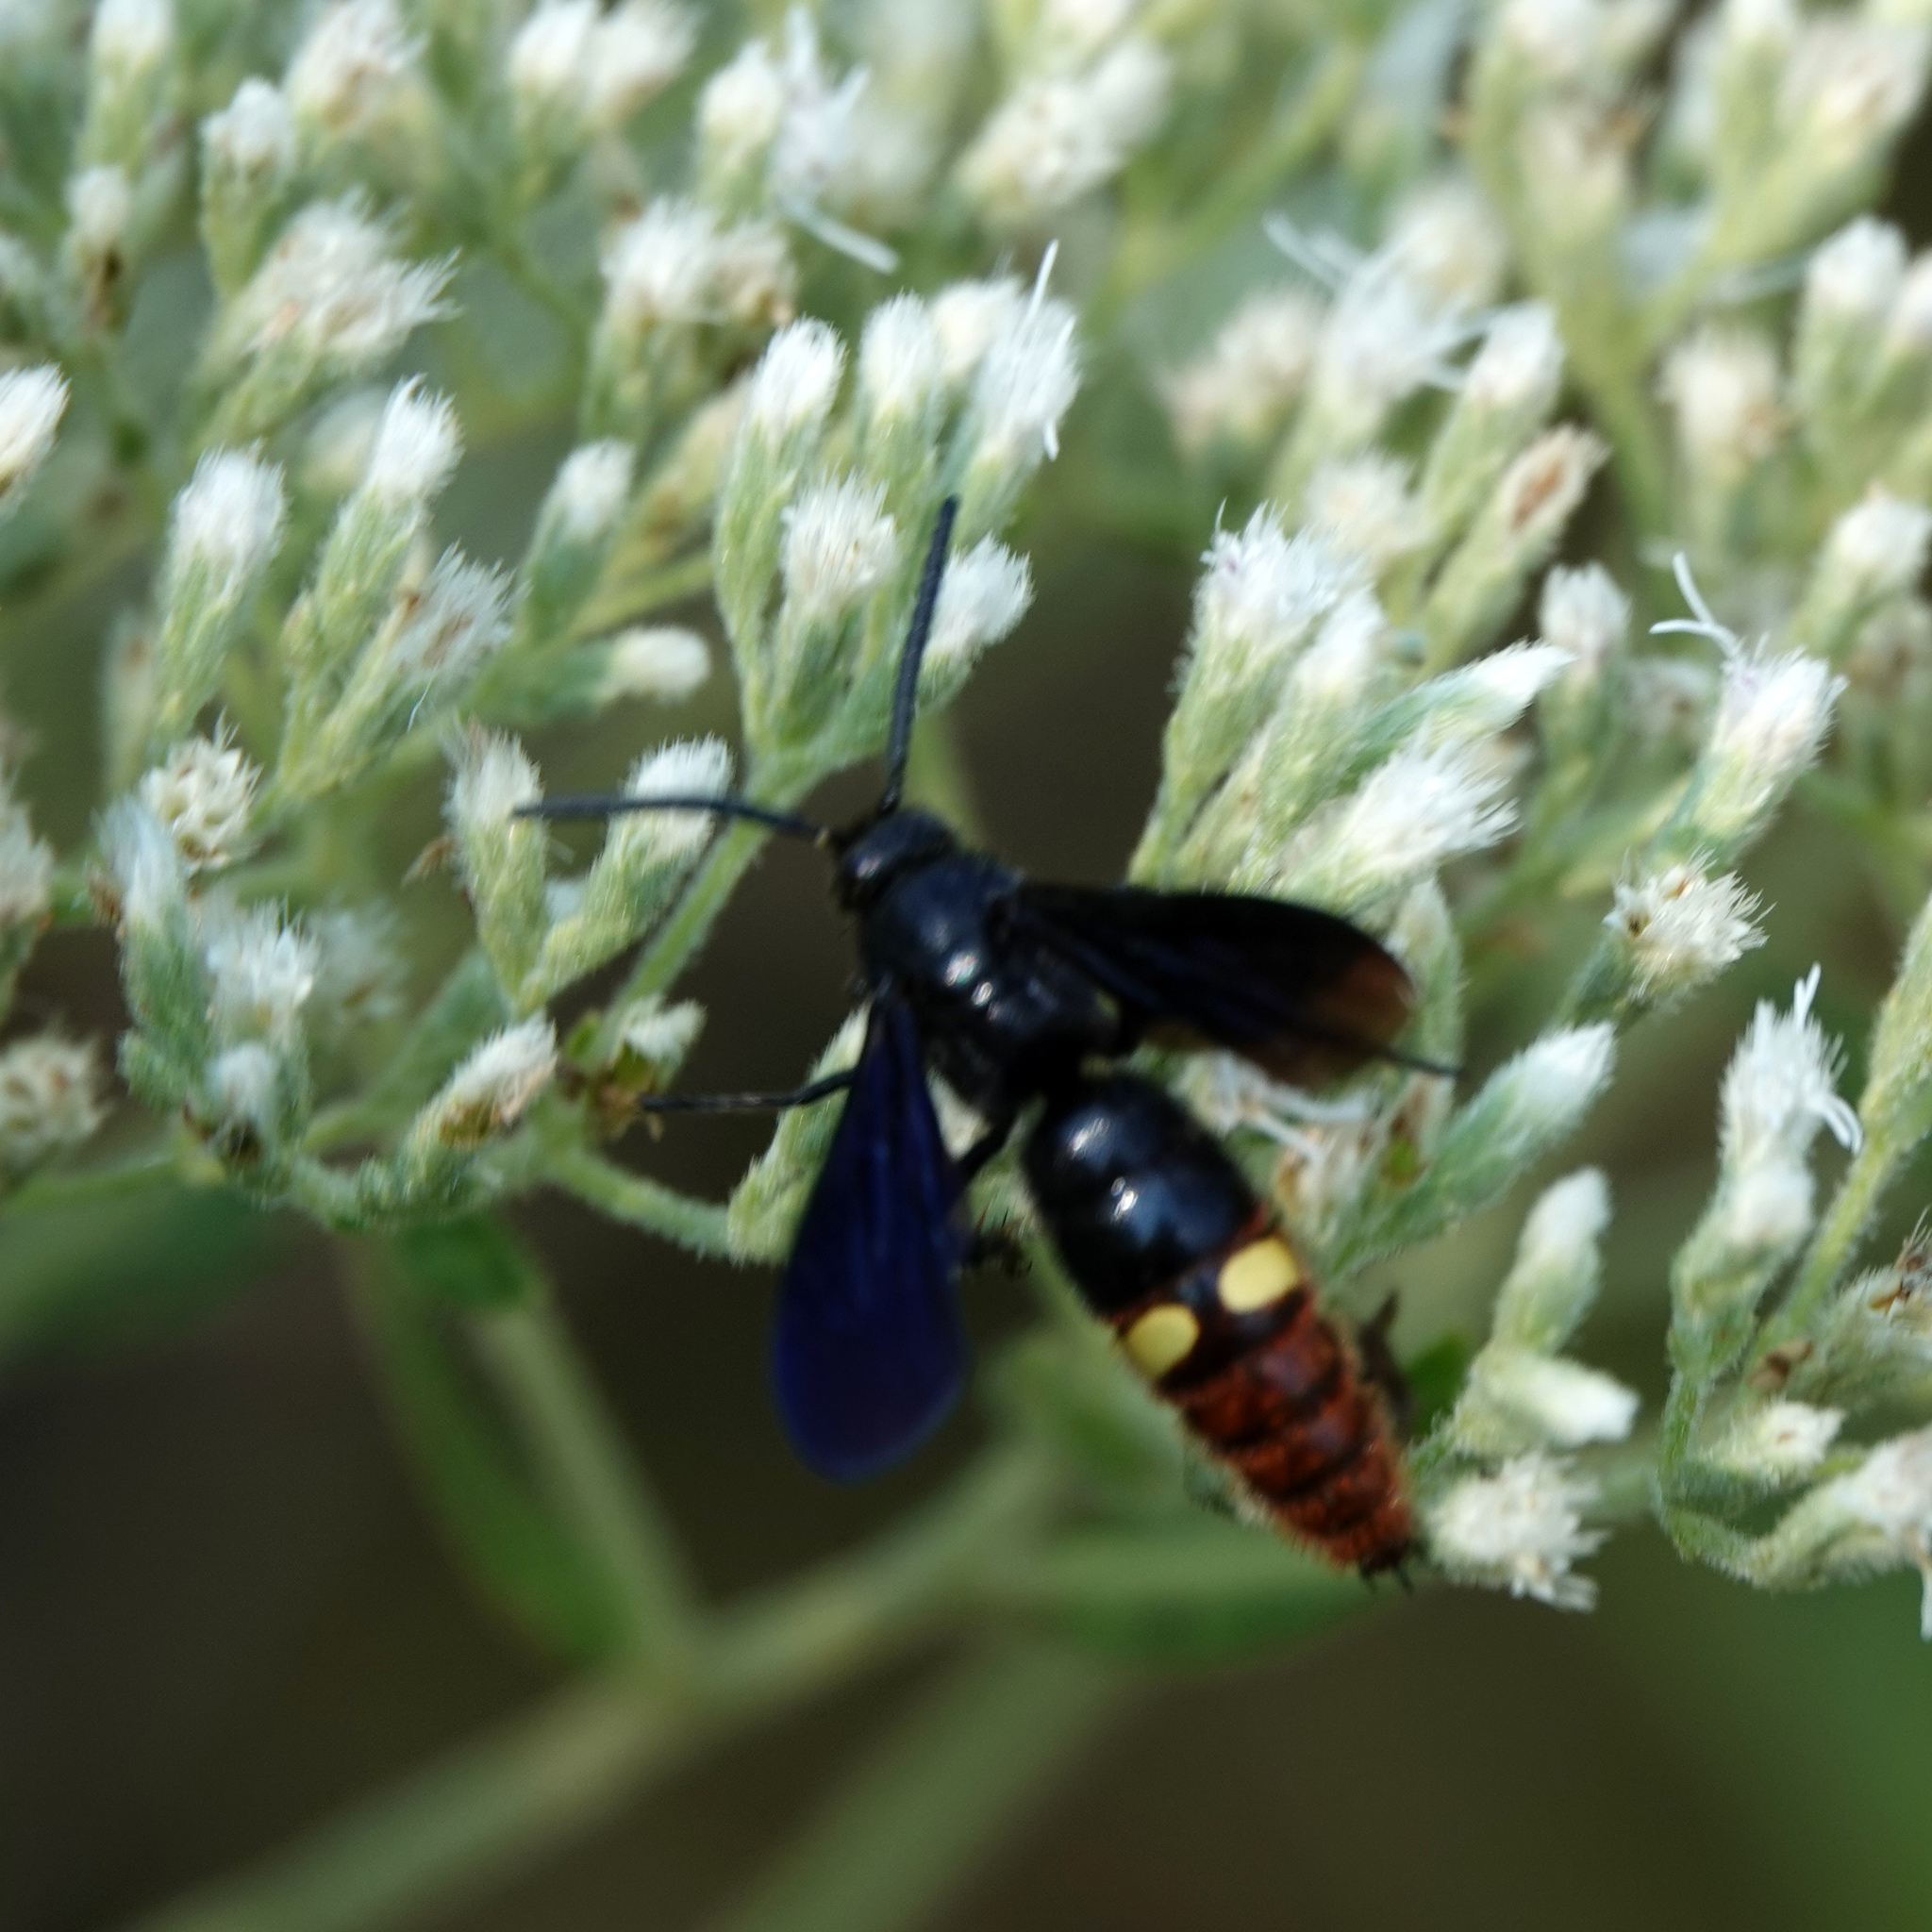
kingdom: Animalia
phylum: Arthropoda
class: Insecta
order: Hymenoptera
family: Scoliidae
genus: Scolia
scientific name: Scolia dubia
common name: Blue-winged scoliid wasp
